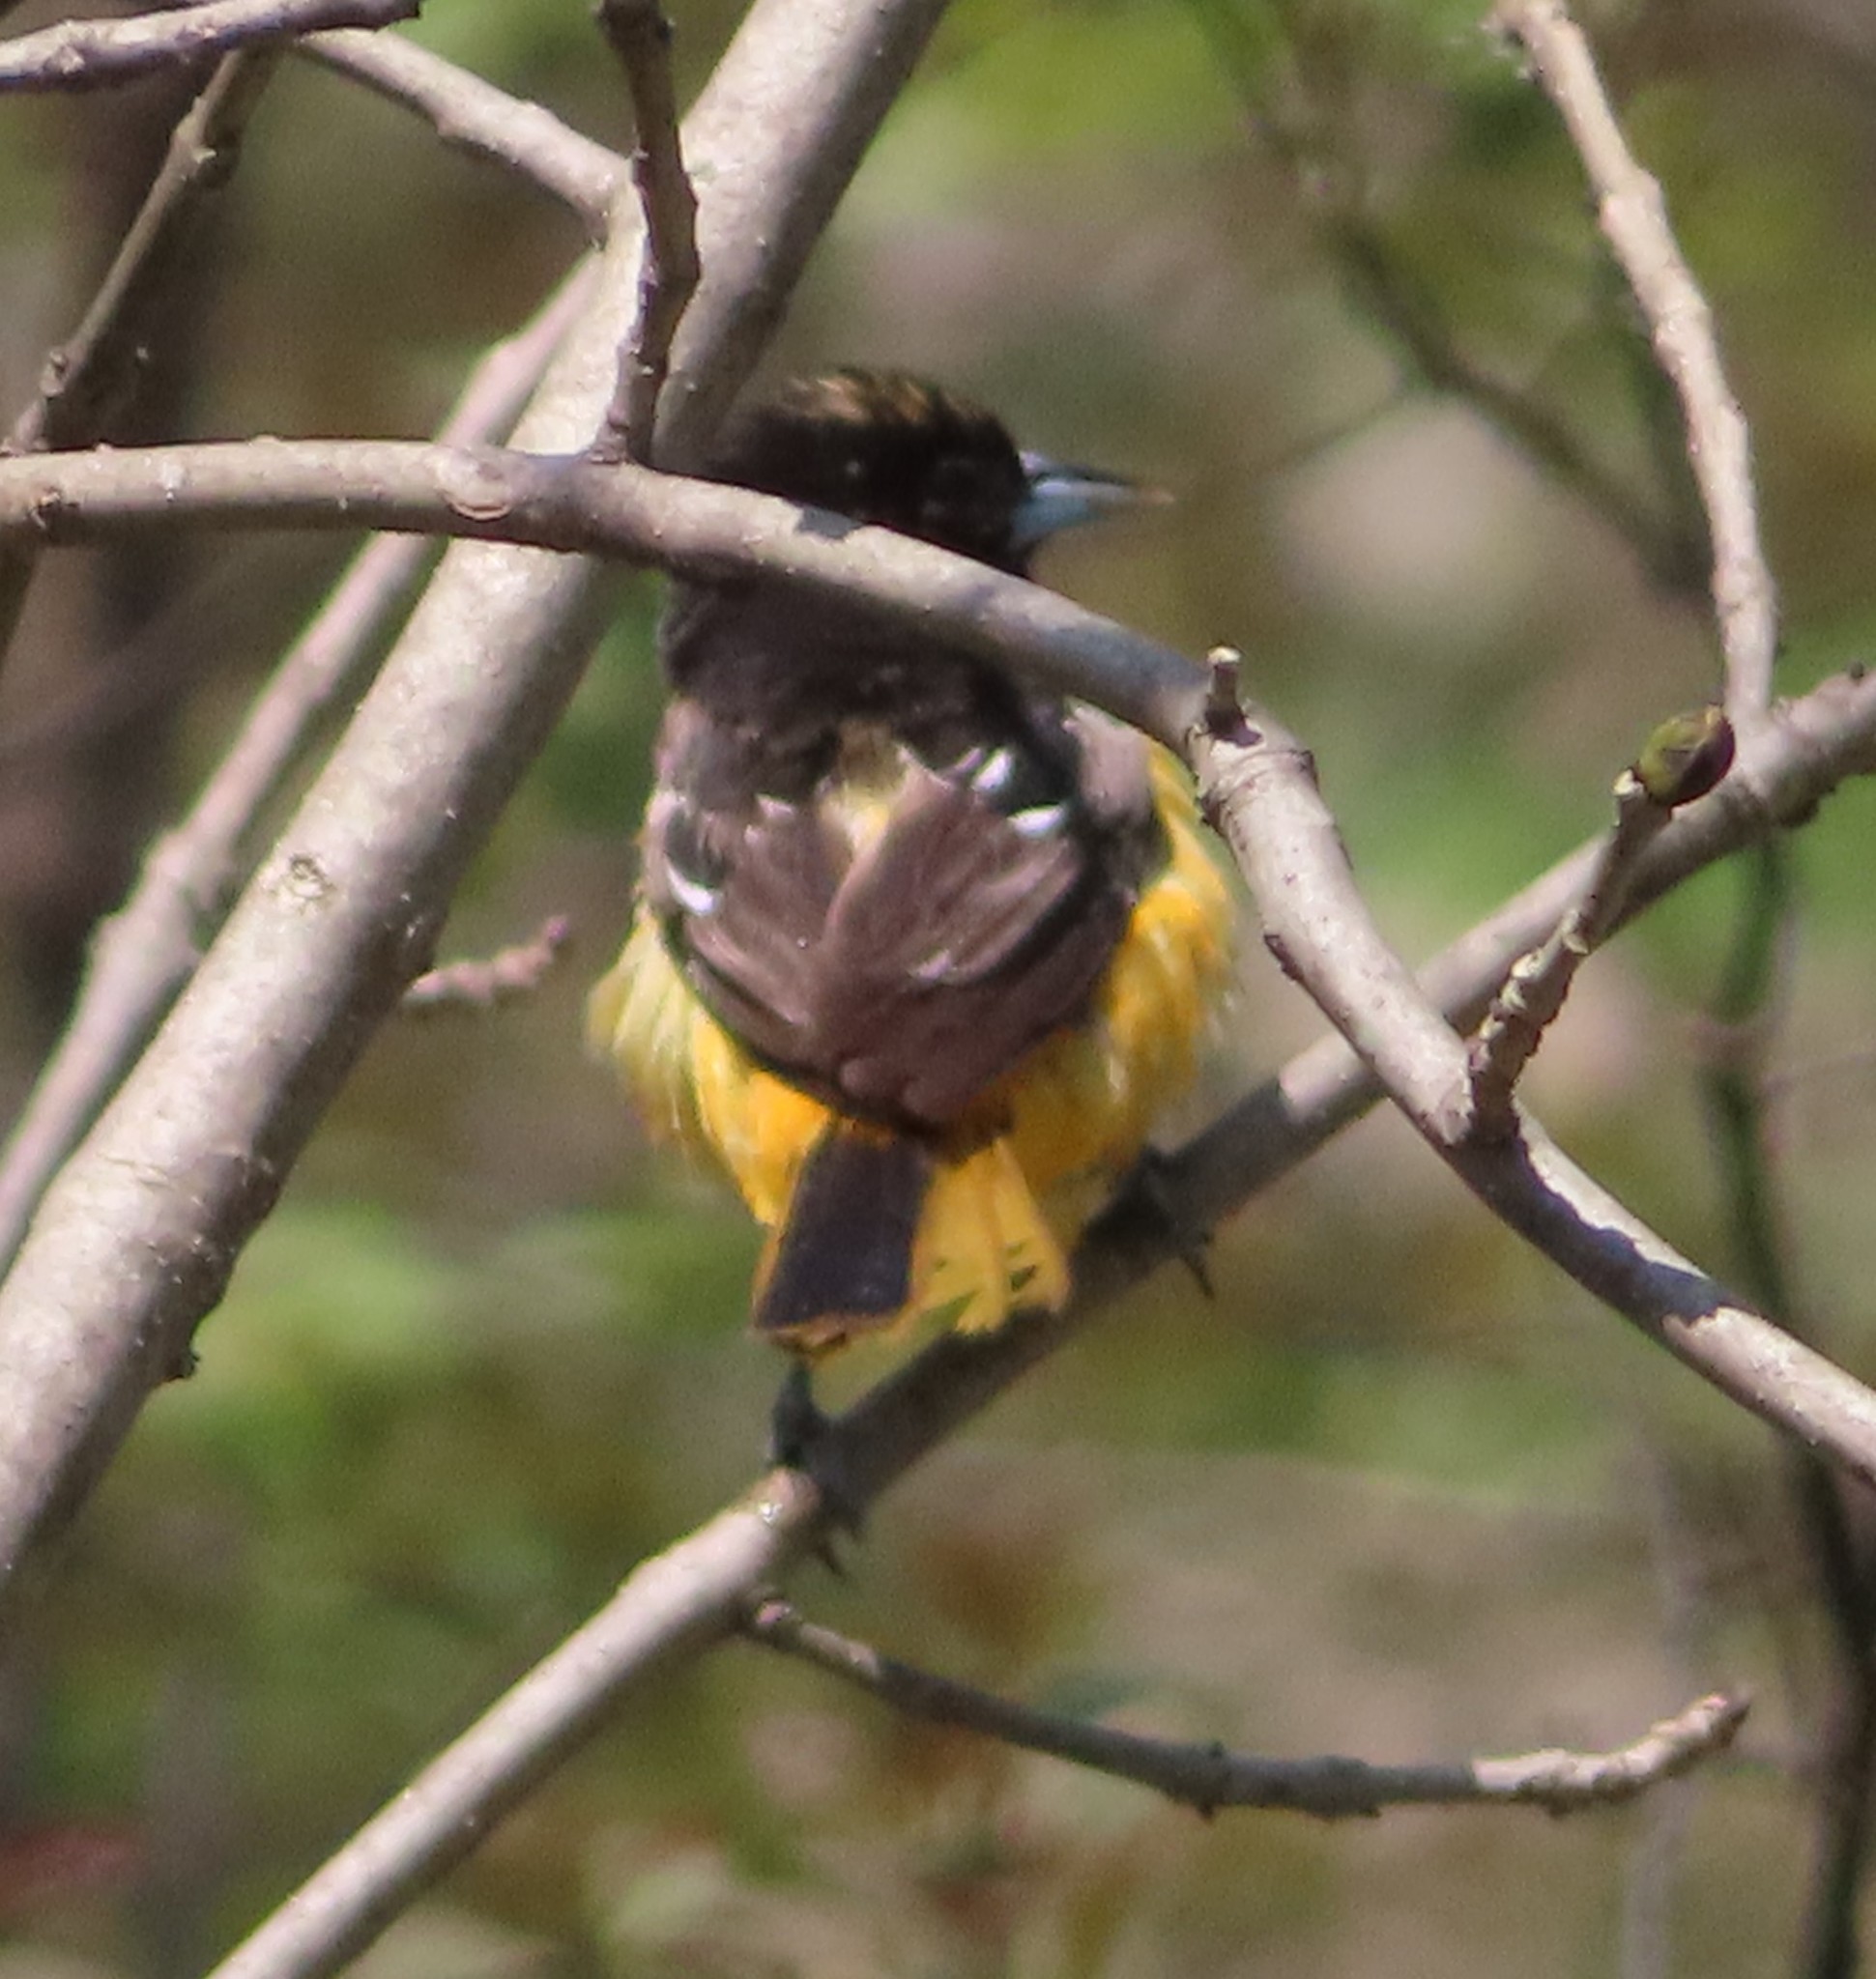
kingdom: Animalia
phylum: Chordata
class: Aves
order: Passeriformes
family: Icteridae
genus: Icterus
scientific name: Icterus galbula
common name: Baltimore oriole
